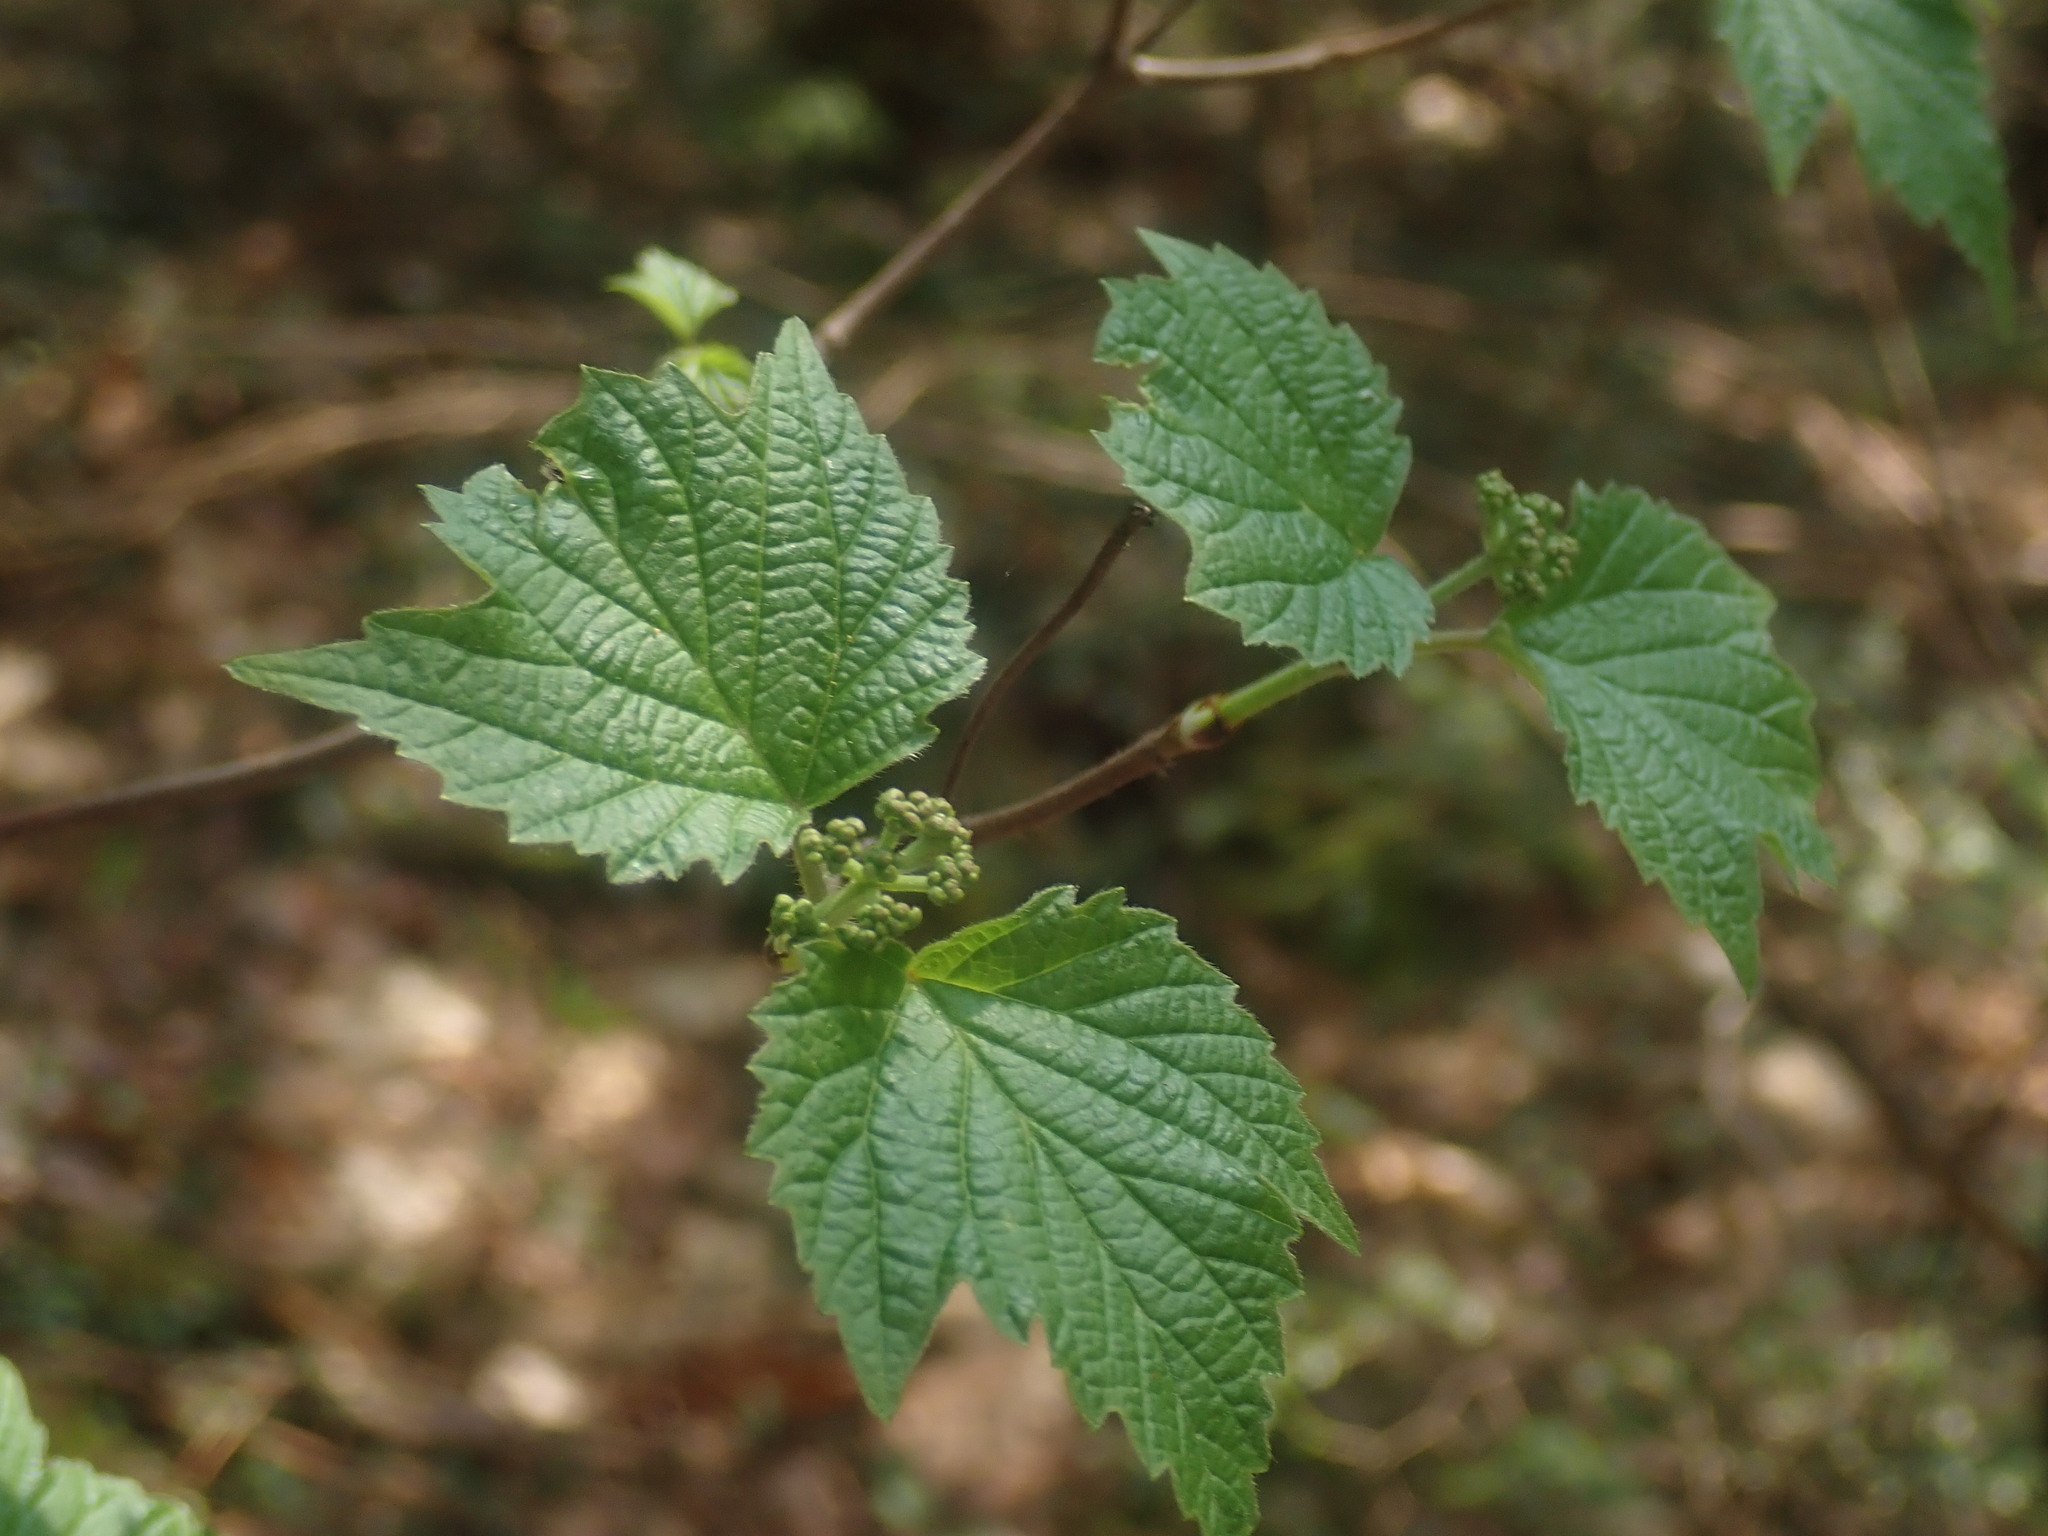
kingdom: Plantae
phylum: Tracheophyta
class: Magnoliopsida
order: Dipsacales
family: Viburnaceae
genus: Viburnum
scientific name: Viburnum acerifolium
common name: Dockmackie
